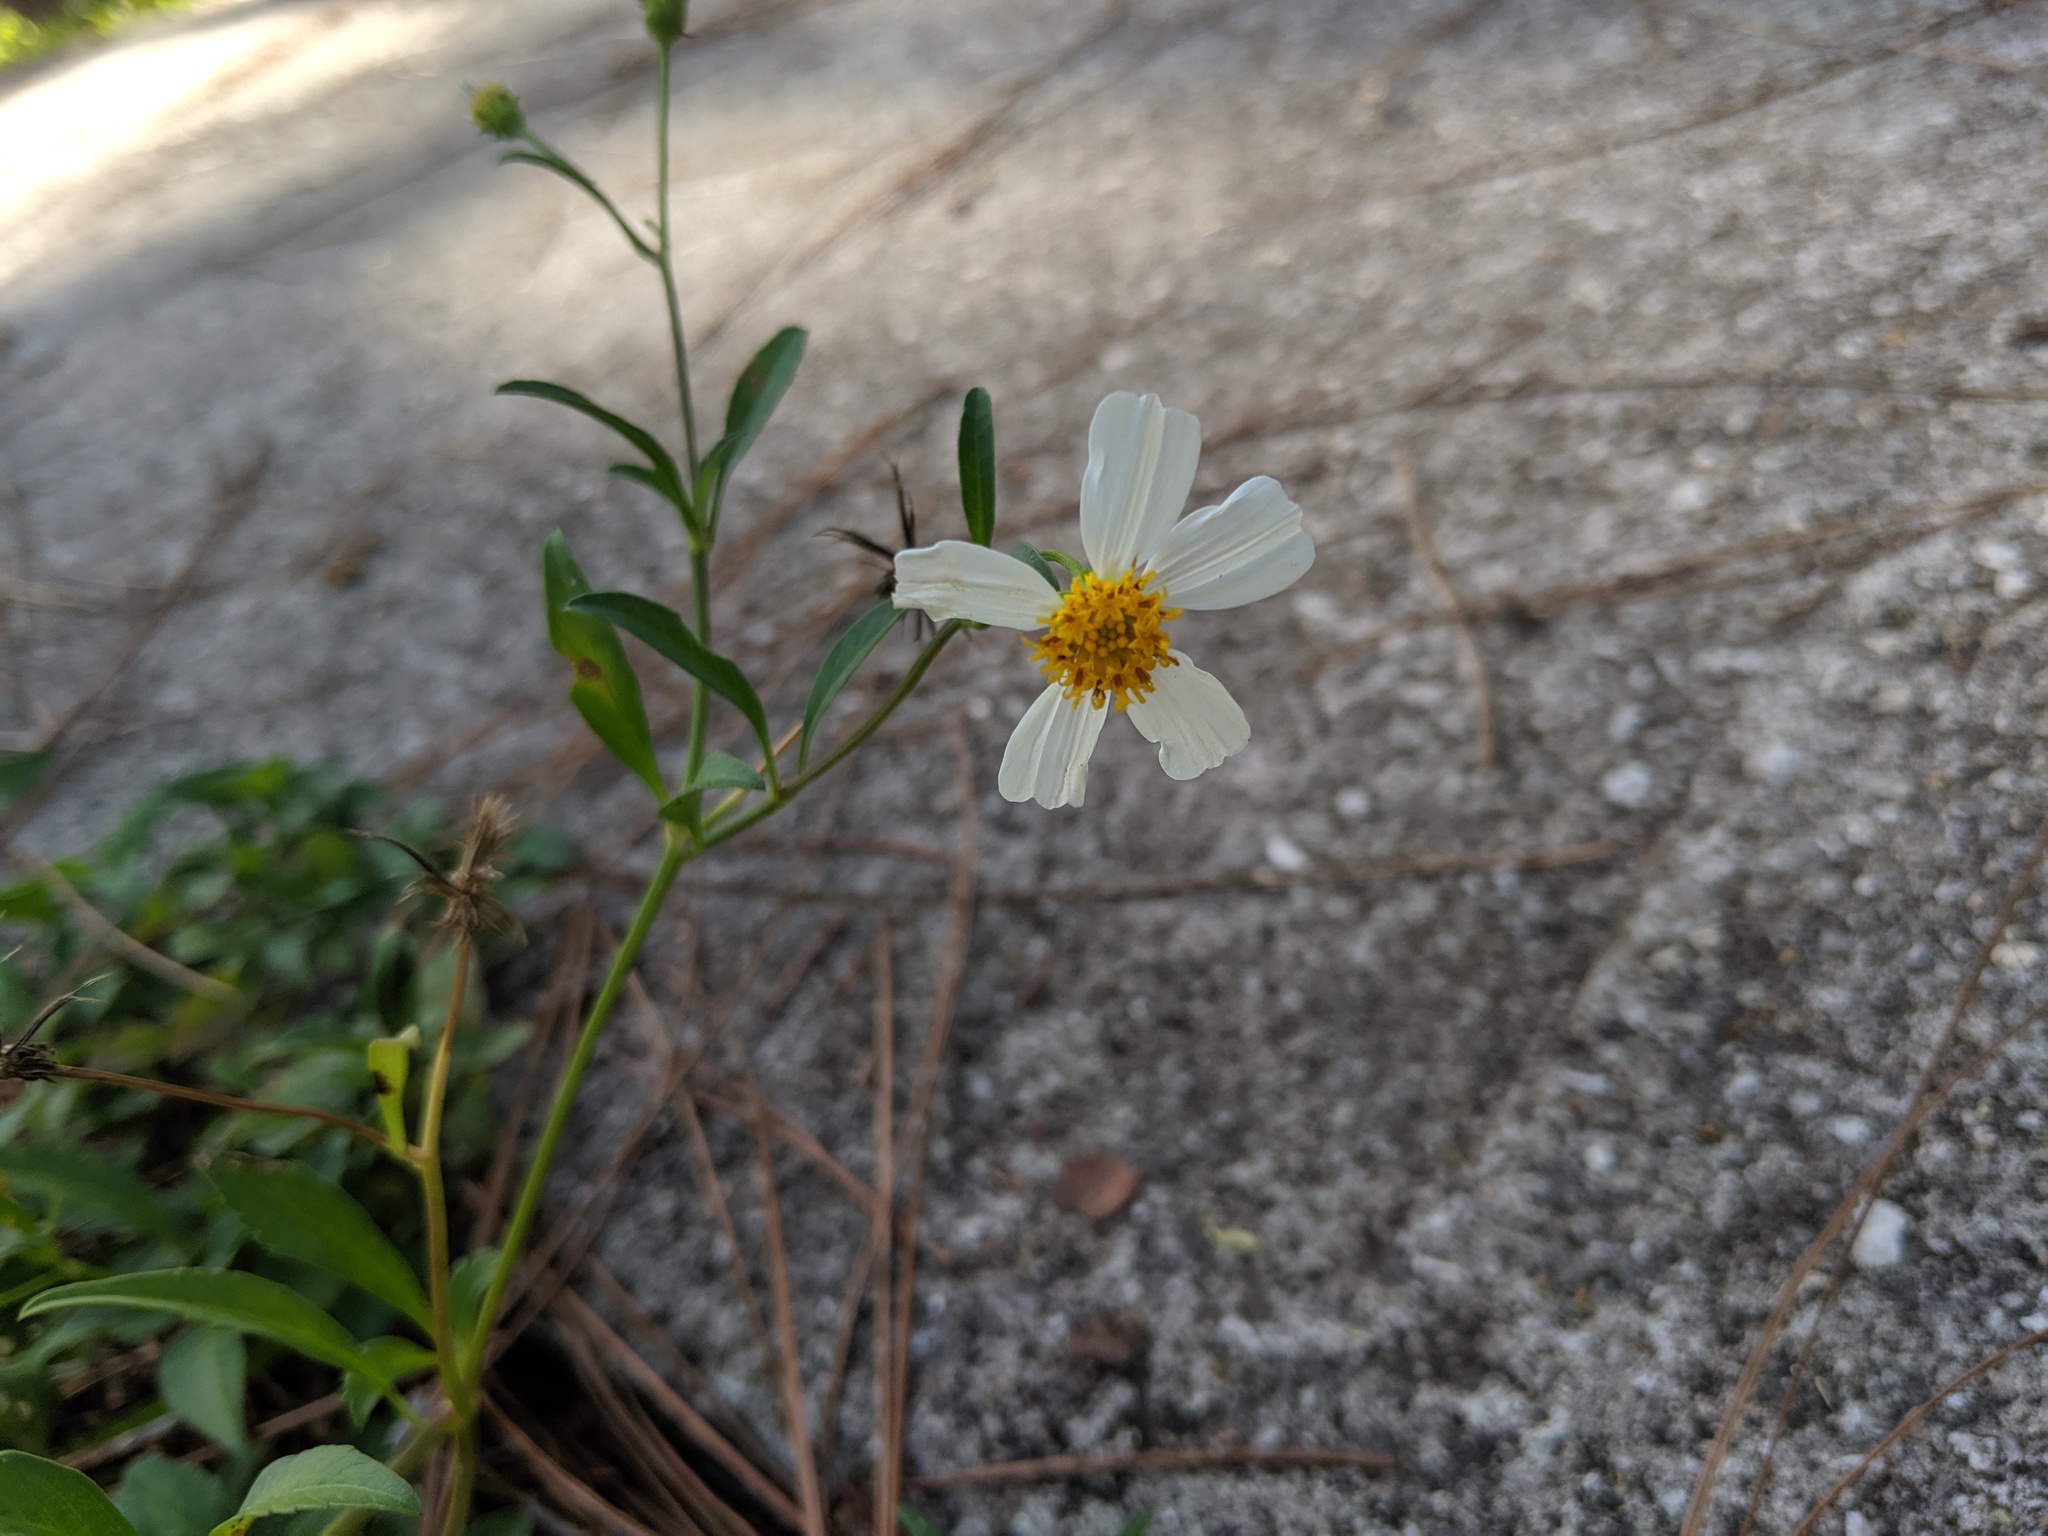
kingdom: Plantae
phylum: Tracheophyta
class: Magnoliopsida
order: Asterales
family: Asteraceae
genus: Bidens
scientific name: Bidens alba
